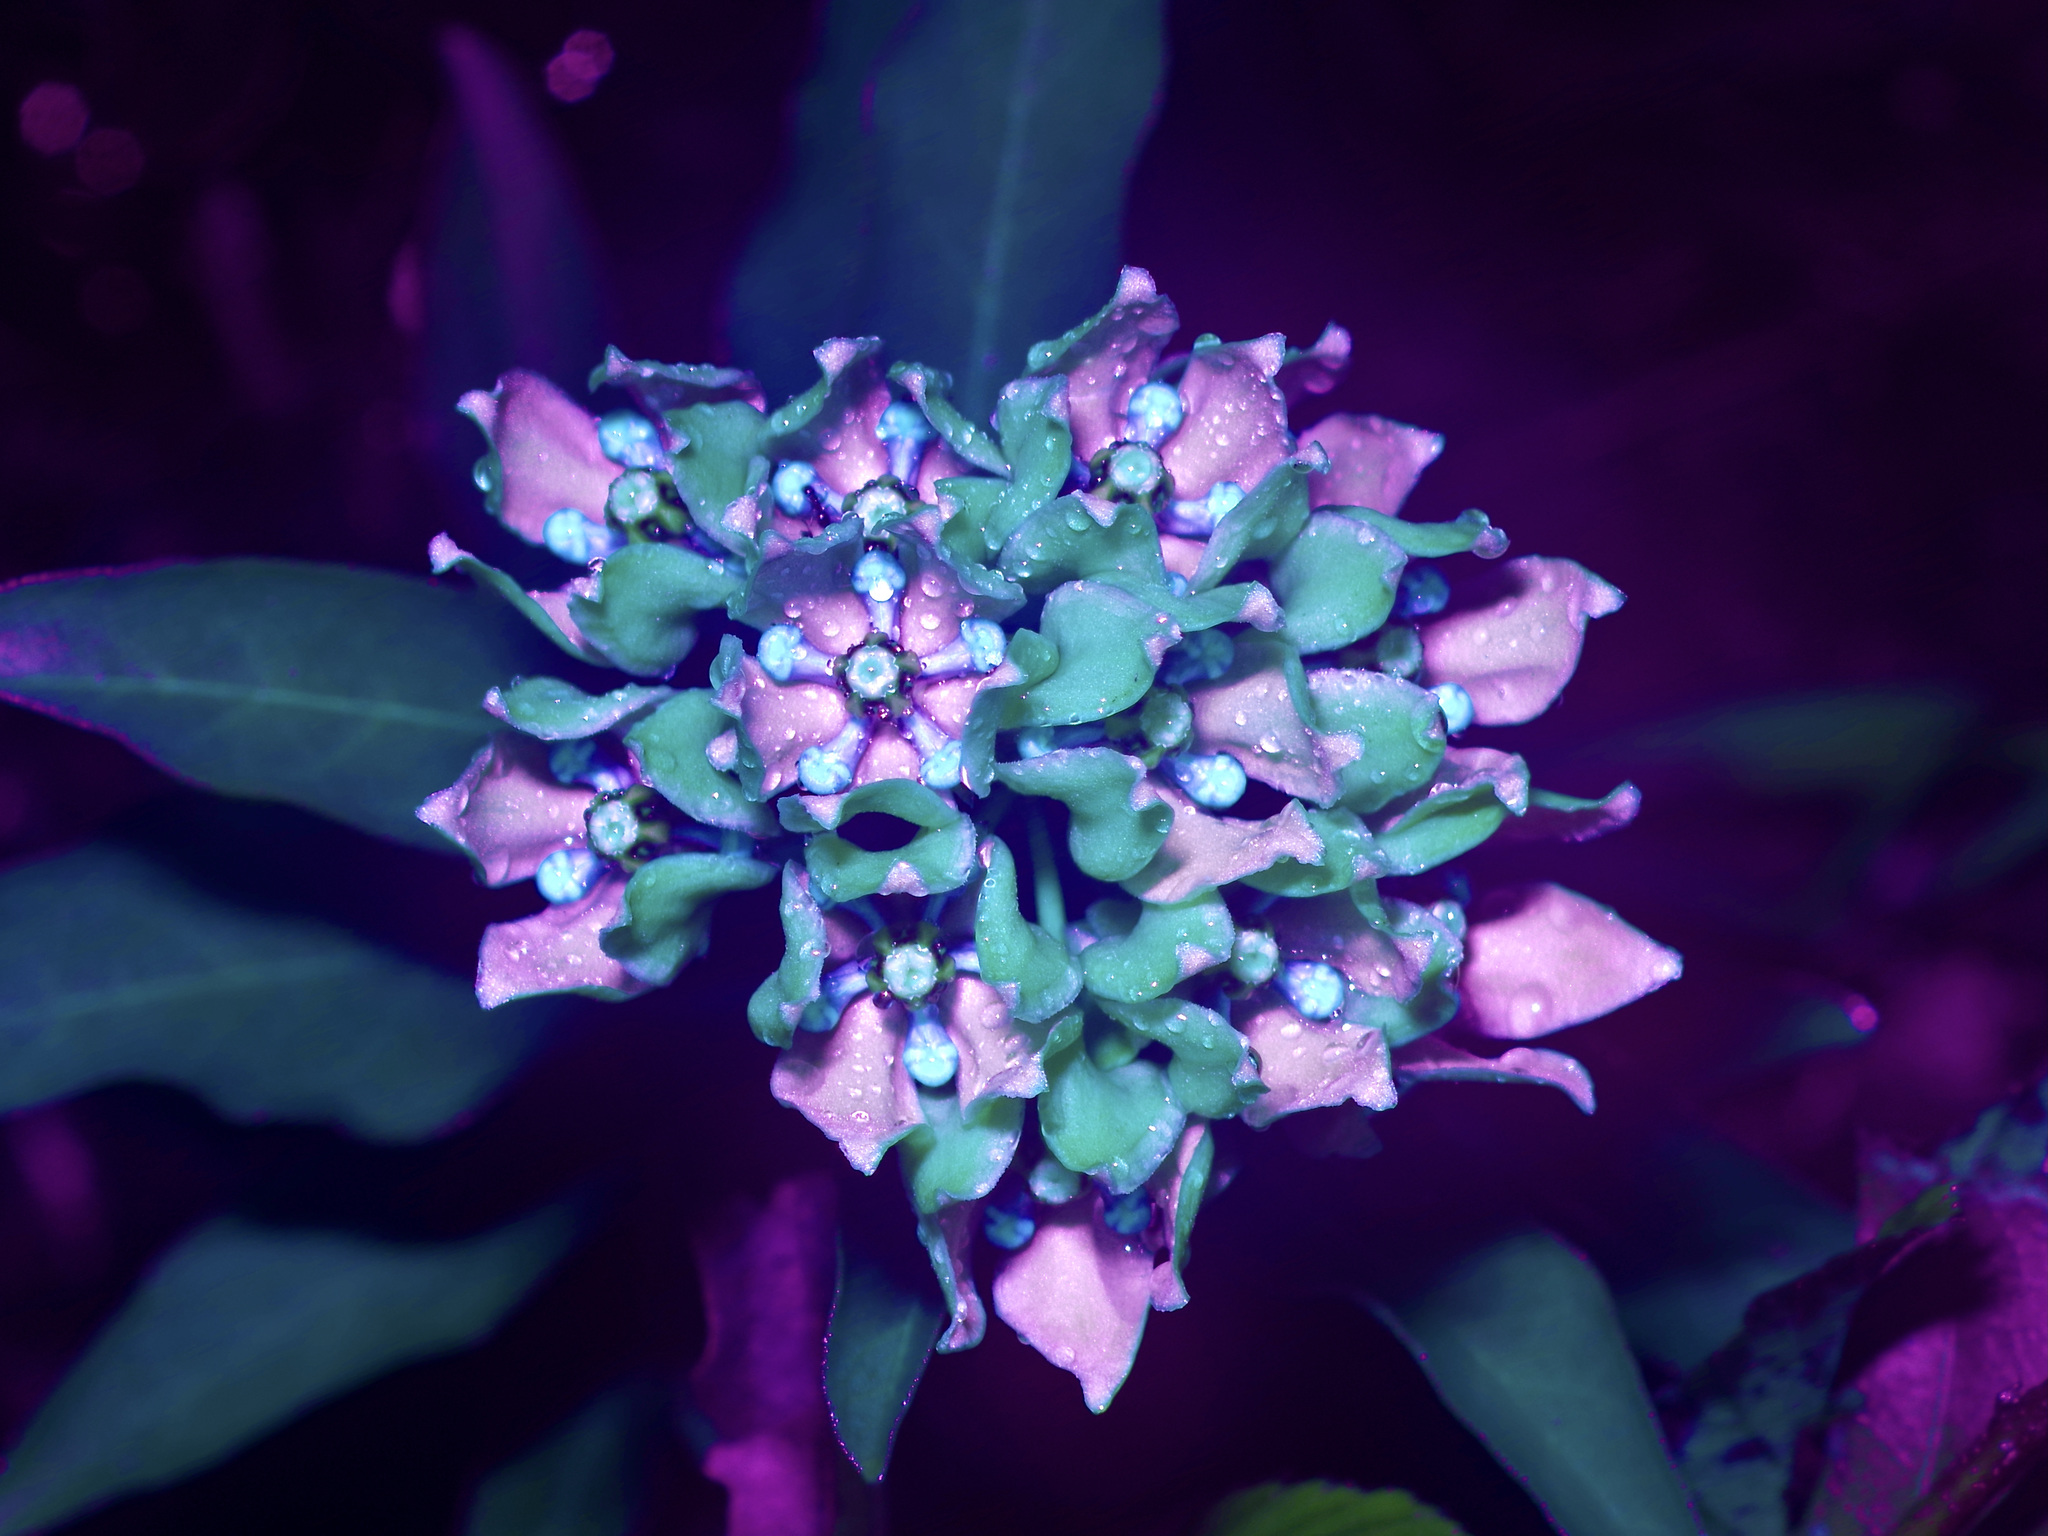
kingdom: Plantae
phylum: Tracheophyta
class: Magnoliopsida
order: Gentianales
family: Apocynaceae
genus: Asclepias
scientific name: Asclepias viridis
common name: Antelope-horns
